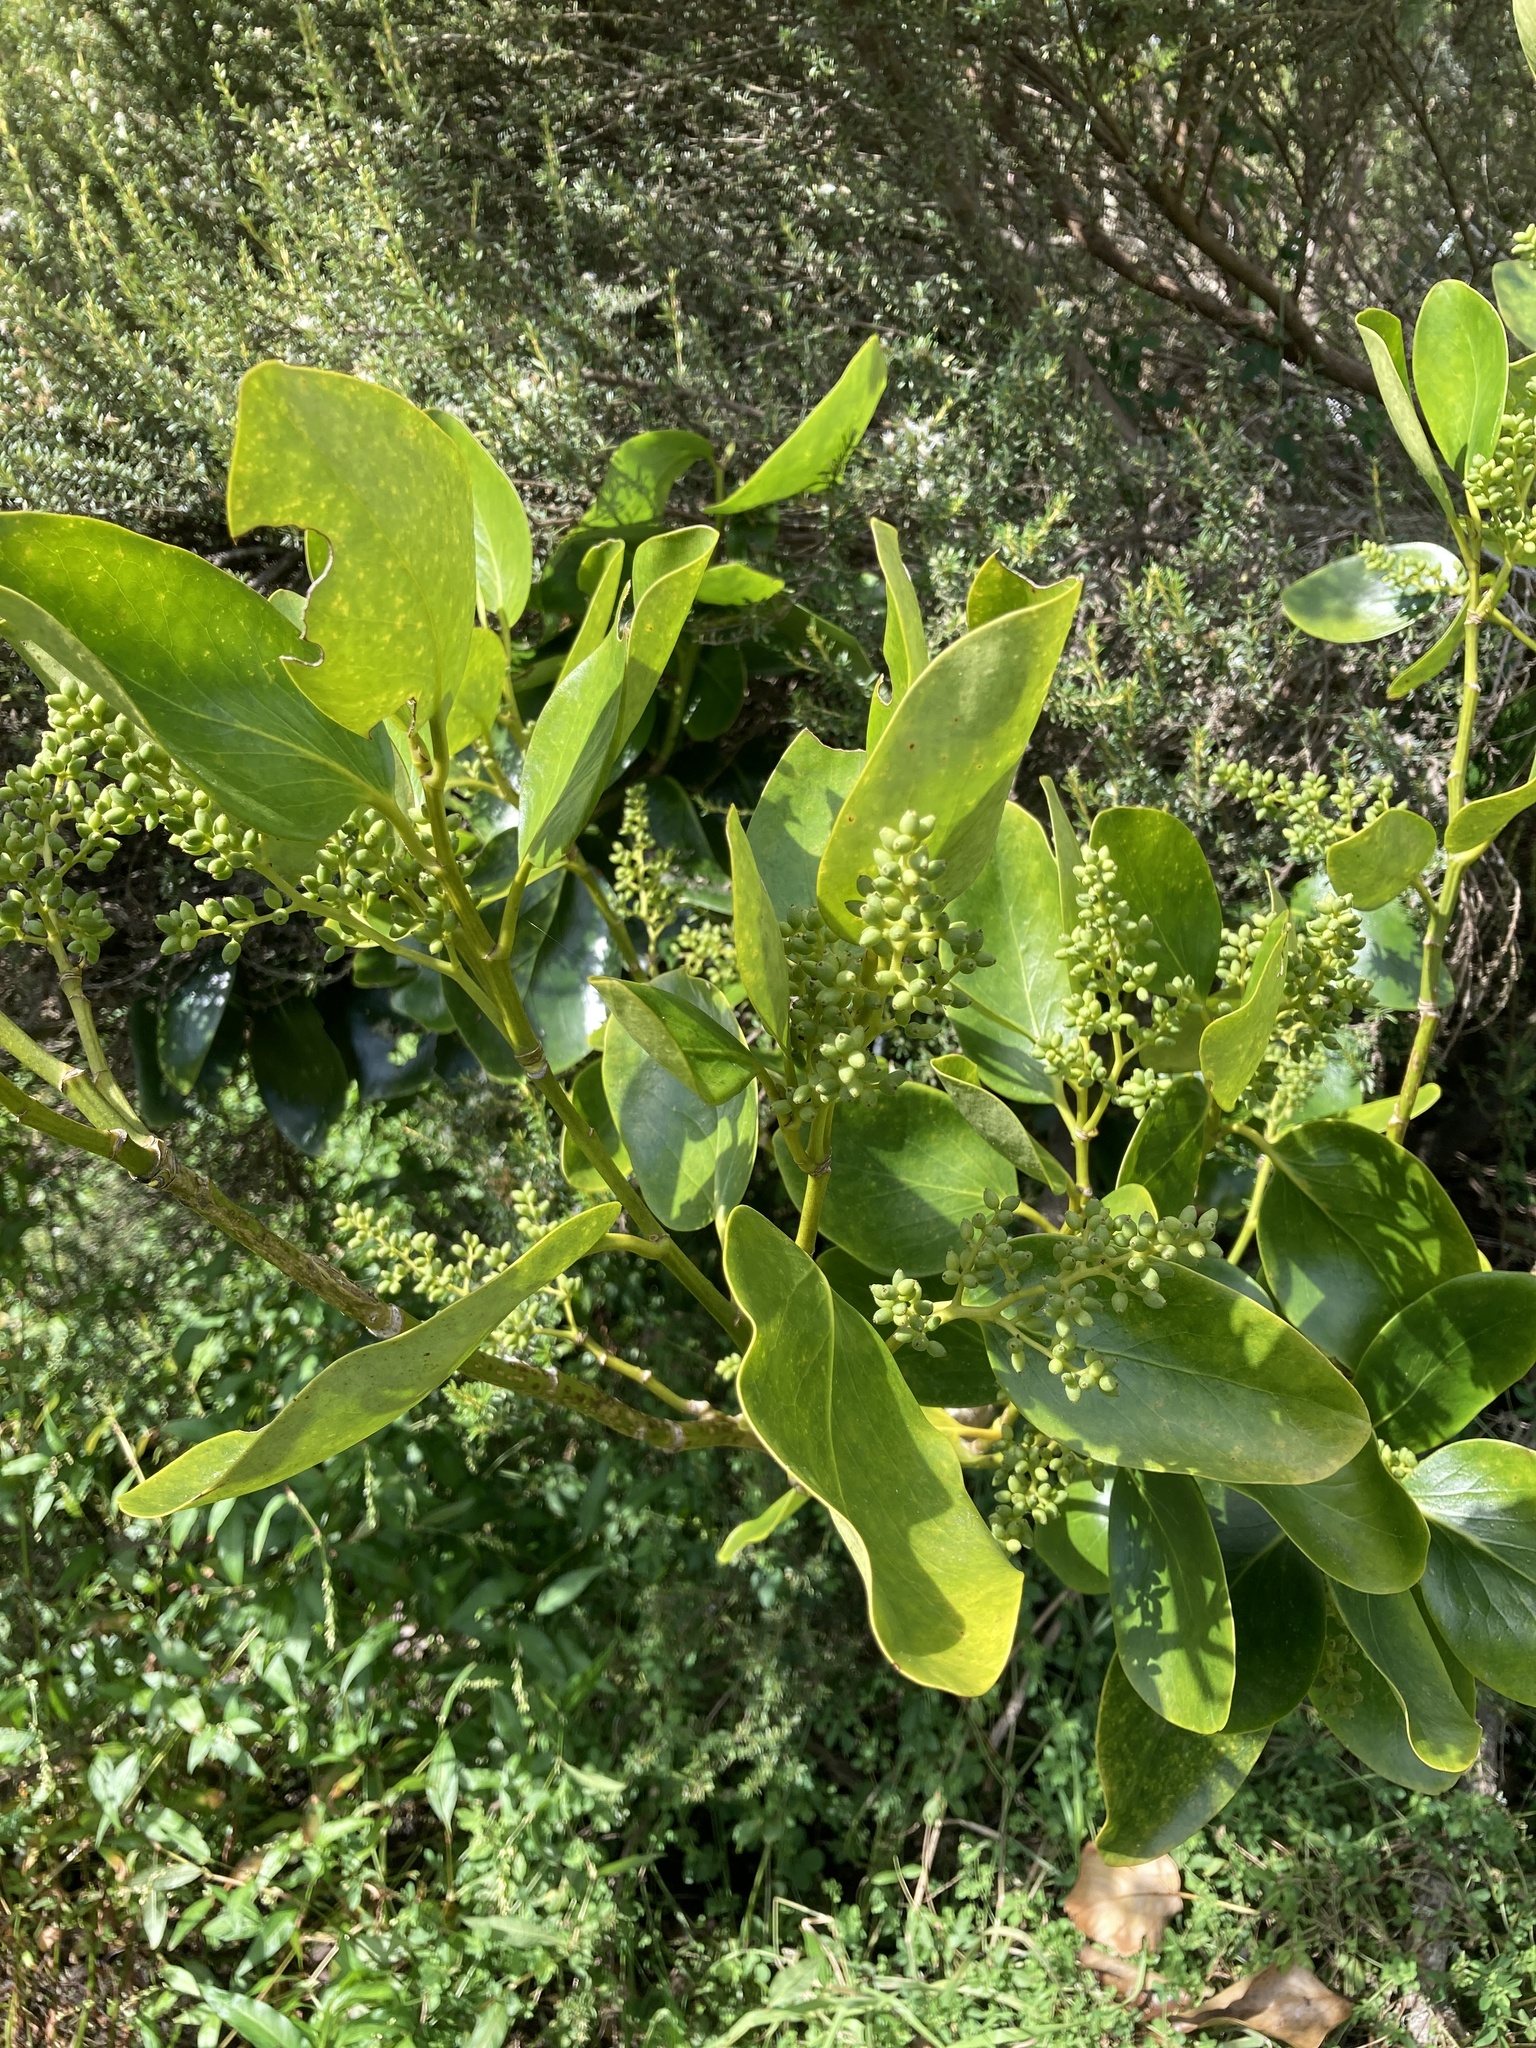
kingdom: Plantae
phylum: Tracheophyta
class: Magnoliopsida
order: Apiales
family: Griseliniaceae
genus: Griselinia
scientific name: Griselinia littoralis
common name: New zealand broadleaf
